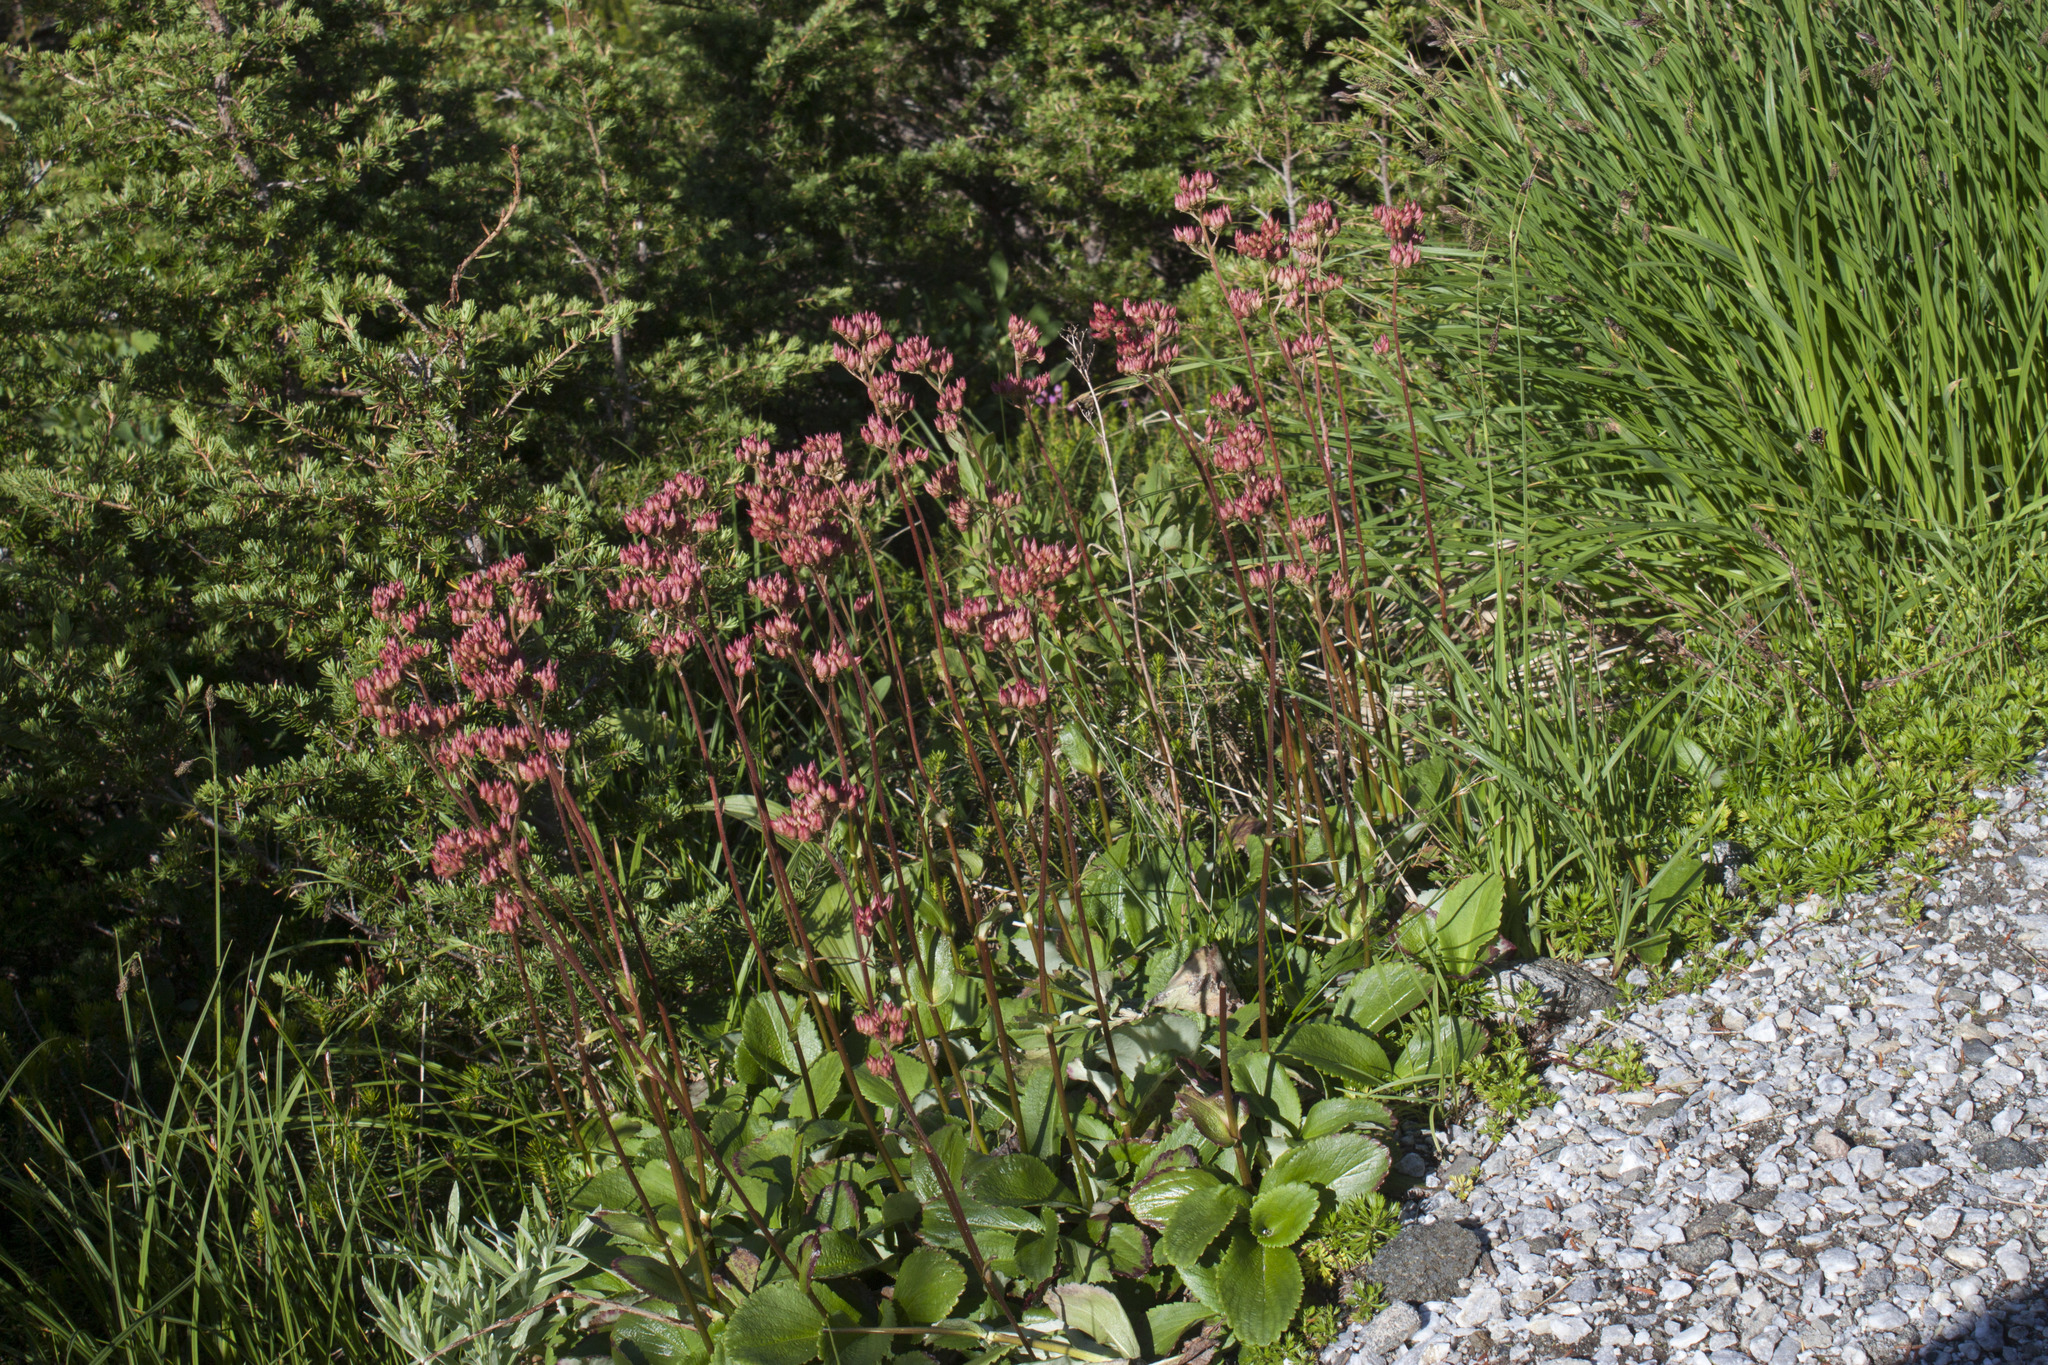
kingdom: Plantae
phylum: Tracheophyta
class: Magnoliopsida
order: Saxifragales
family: Saxifragaceae
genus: Leptarrhena
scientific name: Leptarrhena pyrolifolia
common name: Leatherleaf-saxifrage
